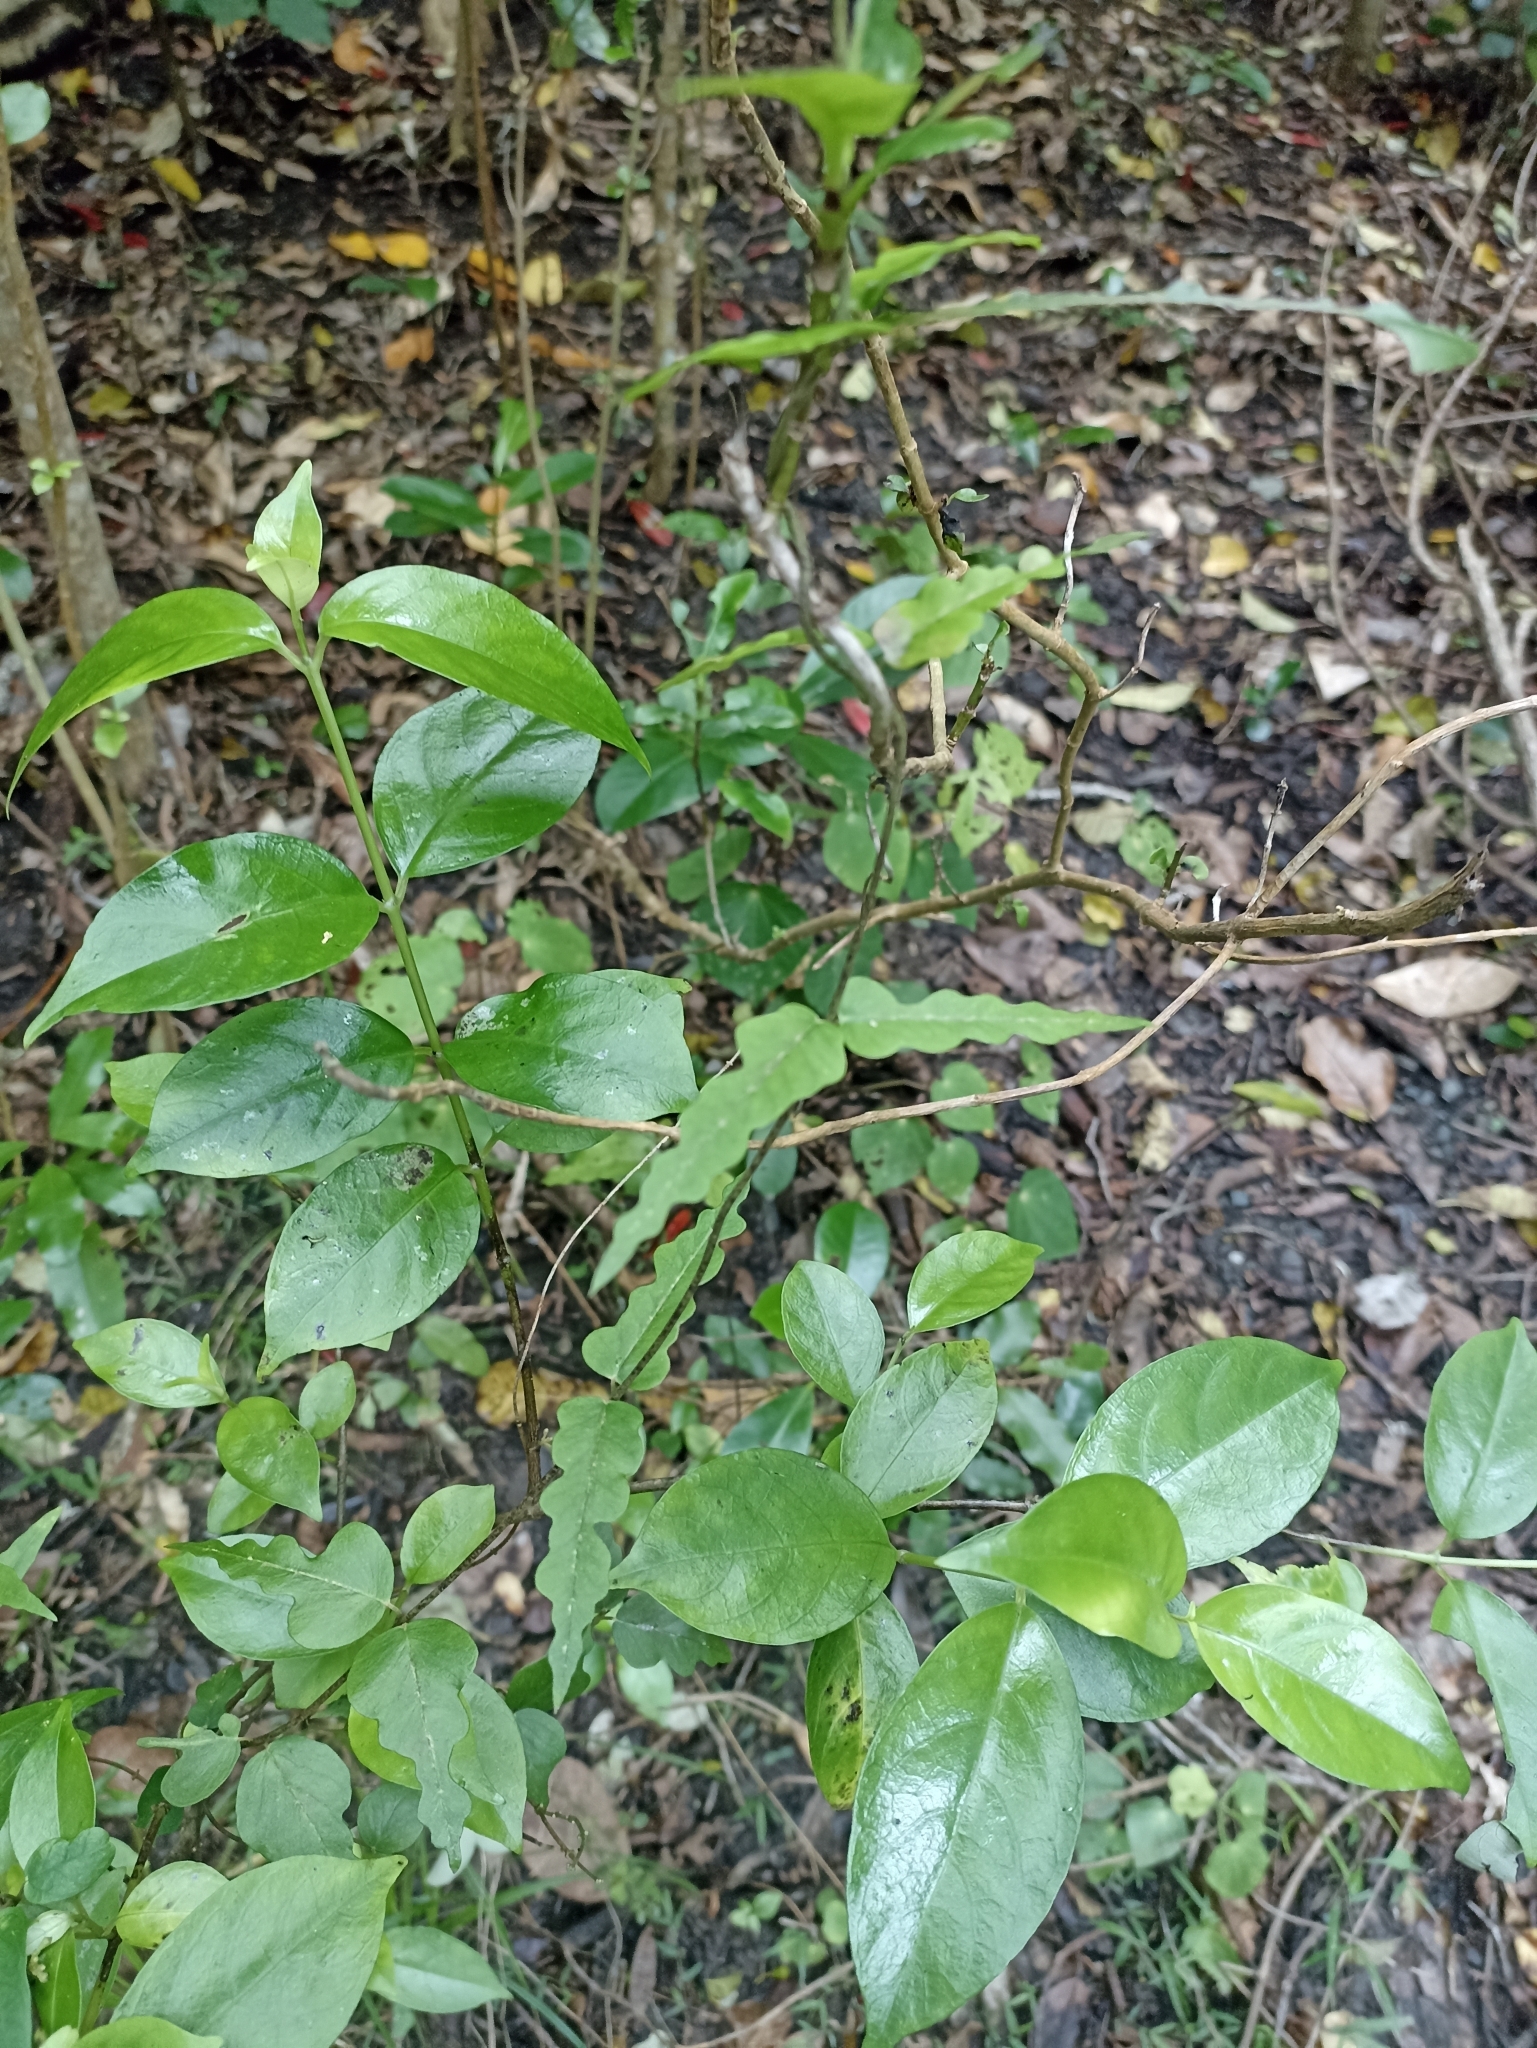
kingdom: Plantae
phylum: Tracheophyta
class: Magnoliopsida
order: Gentianales
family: Apocynaceae
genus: Parsonsia
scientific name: Parsonsia heterophylla
